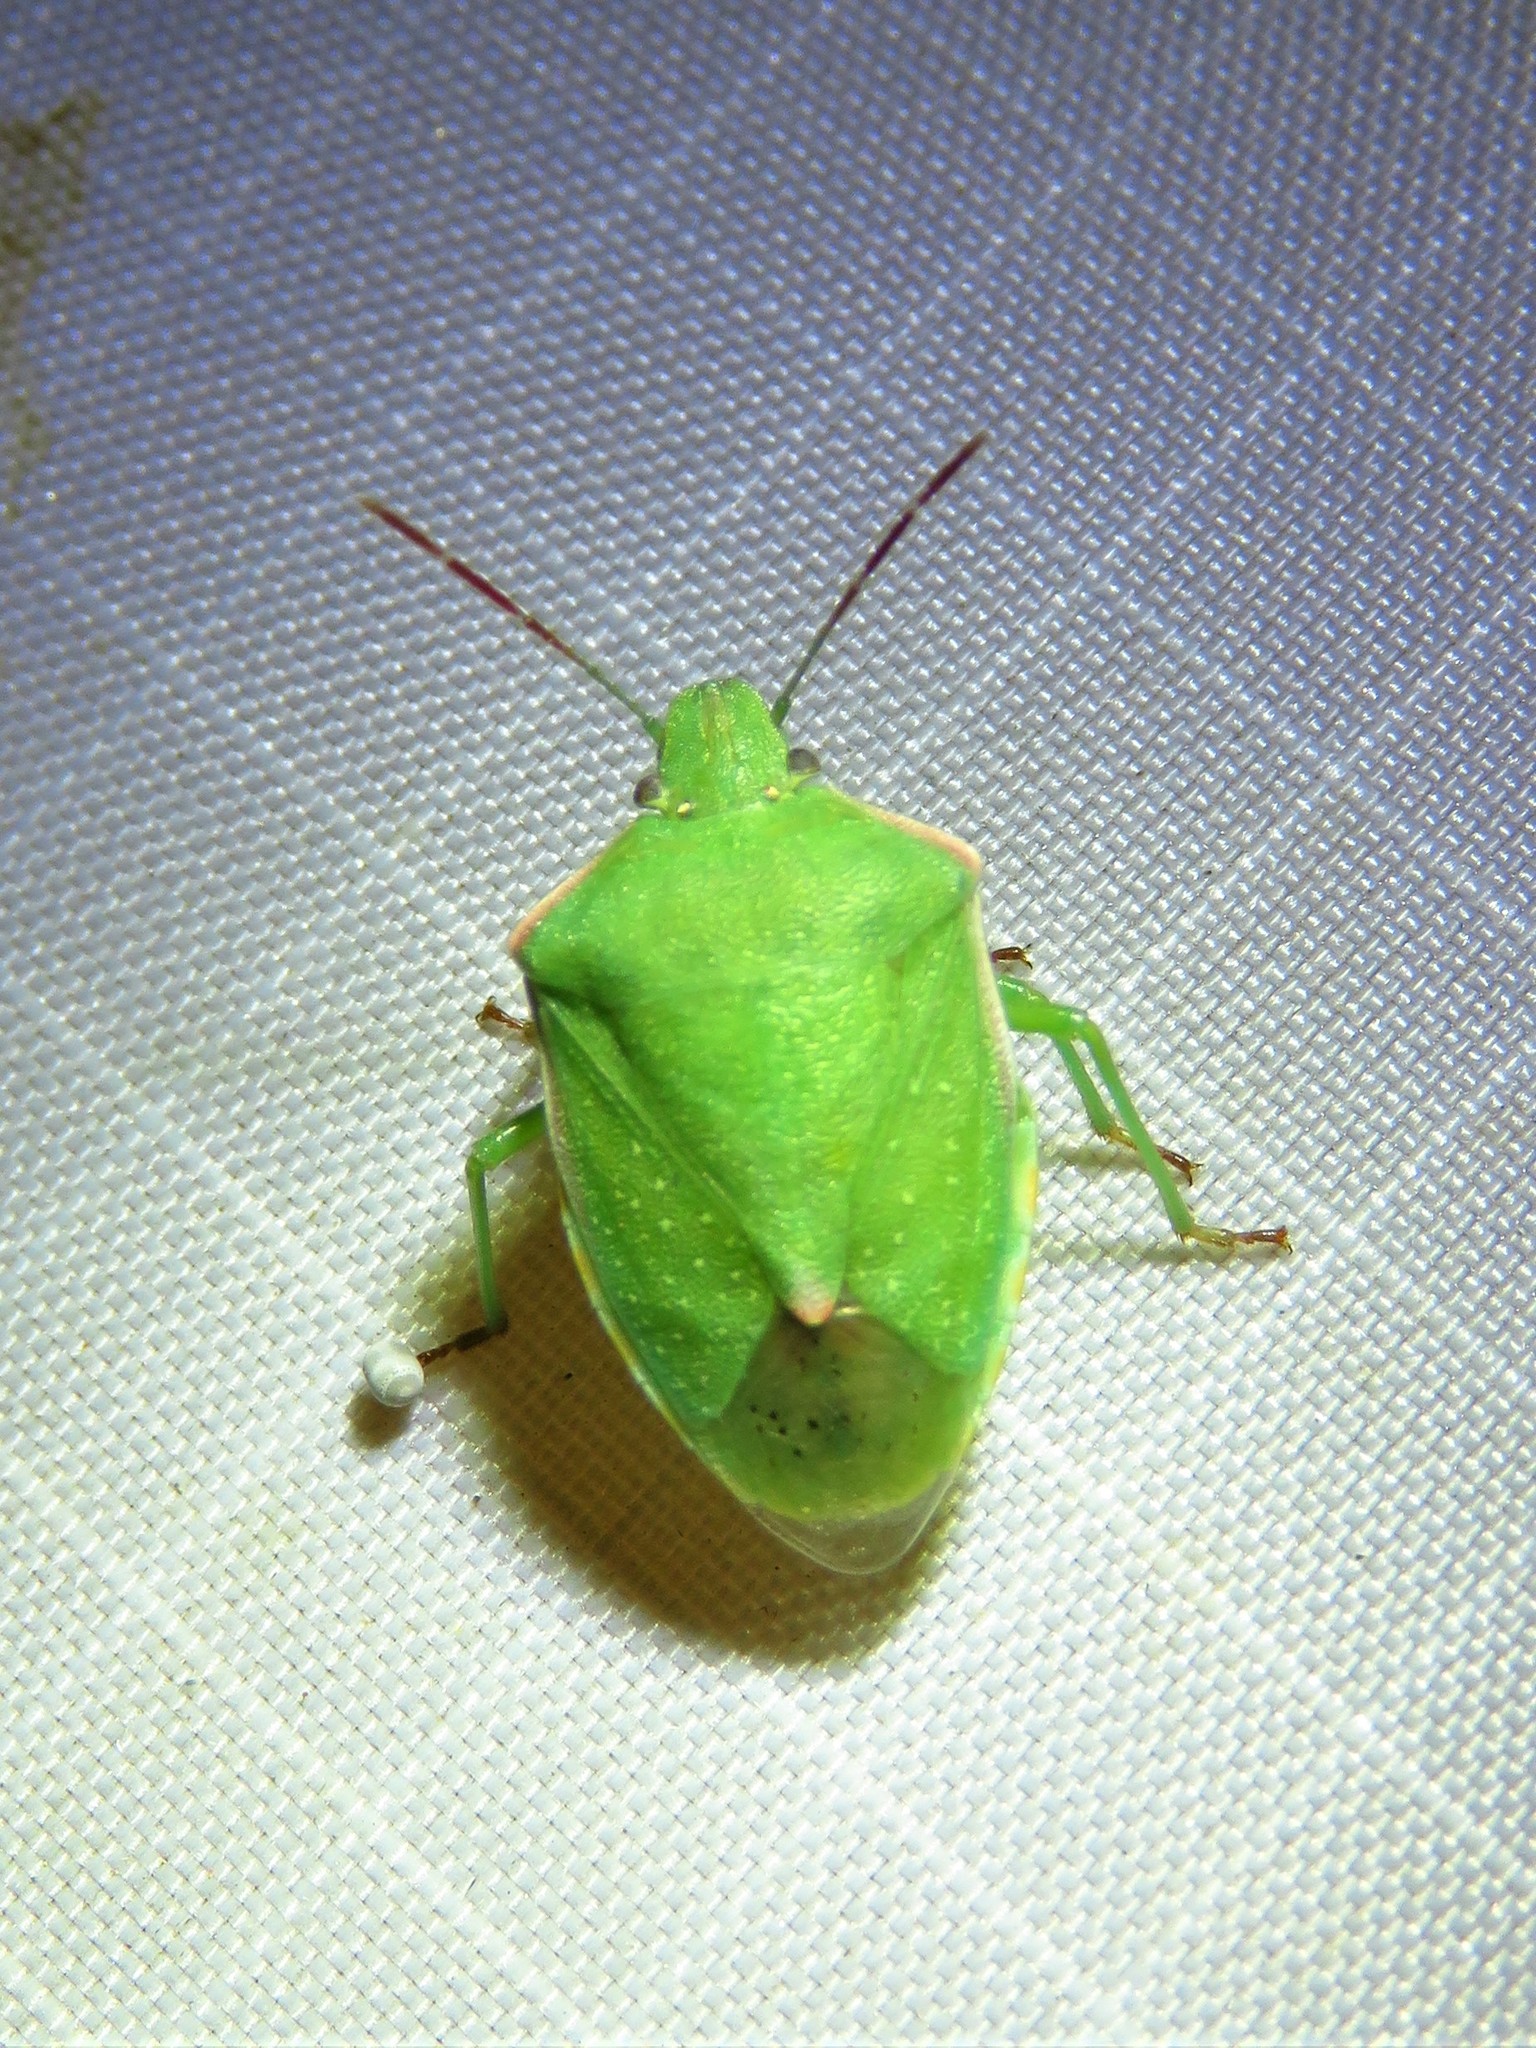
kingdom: Animalia
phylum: Arthropoda
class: Insecta
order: Hemiptera
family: Pentatomidae
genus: Thyanta
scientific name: Thyanta accerra
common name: Stink bug
